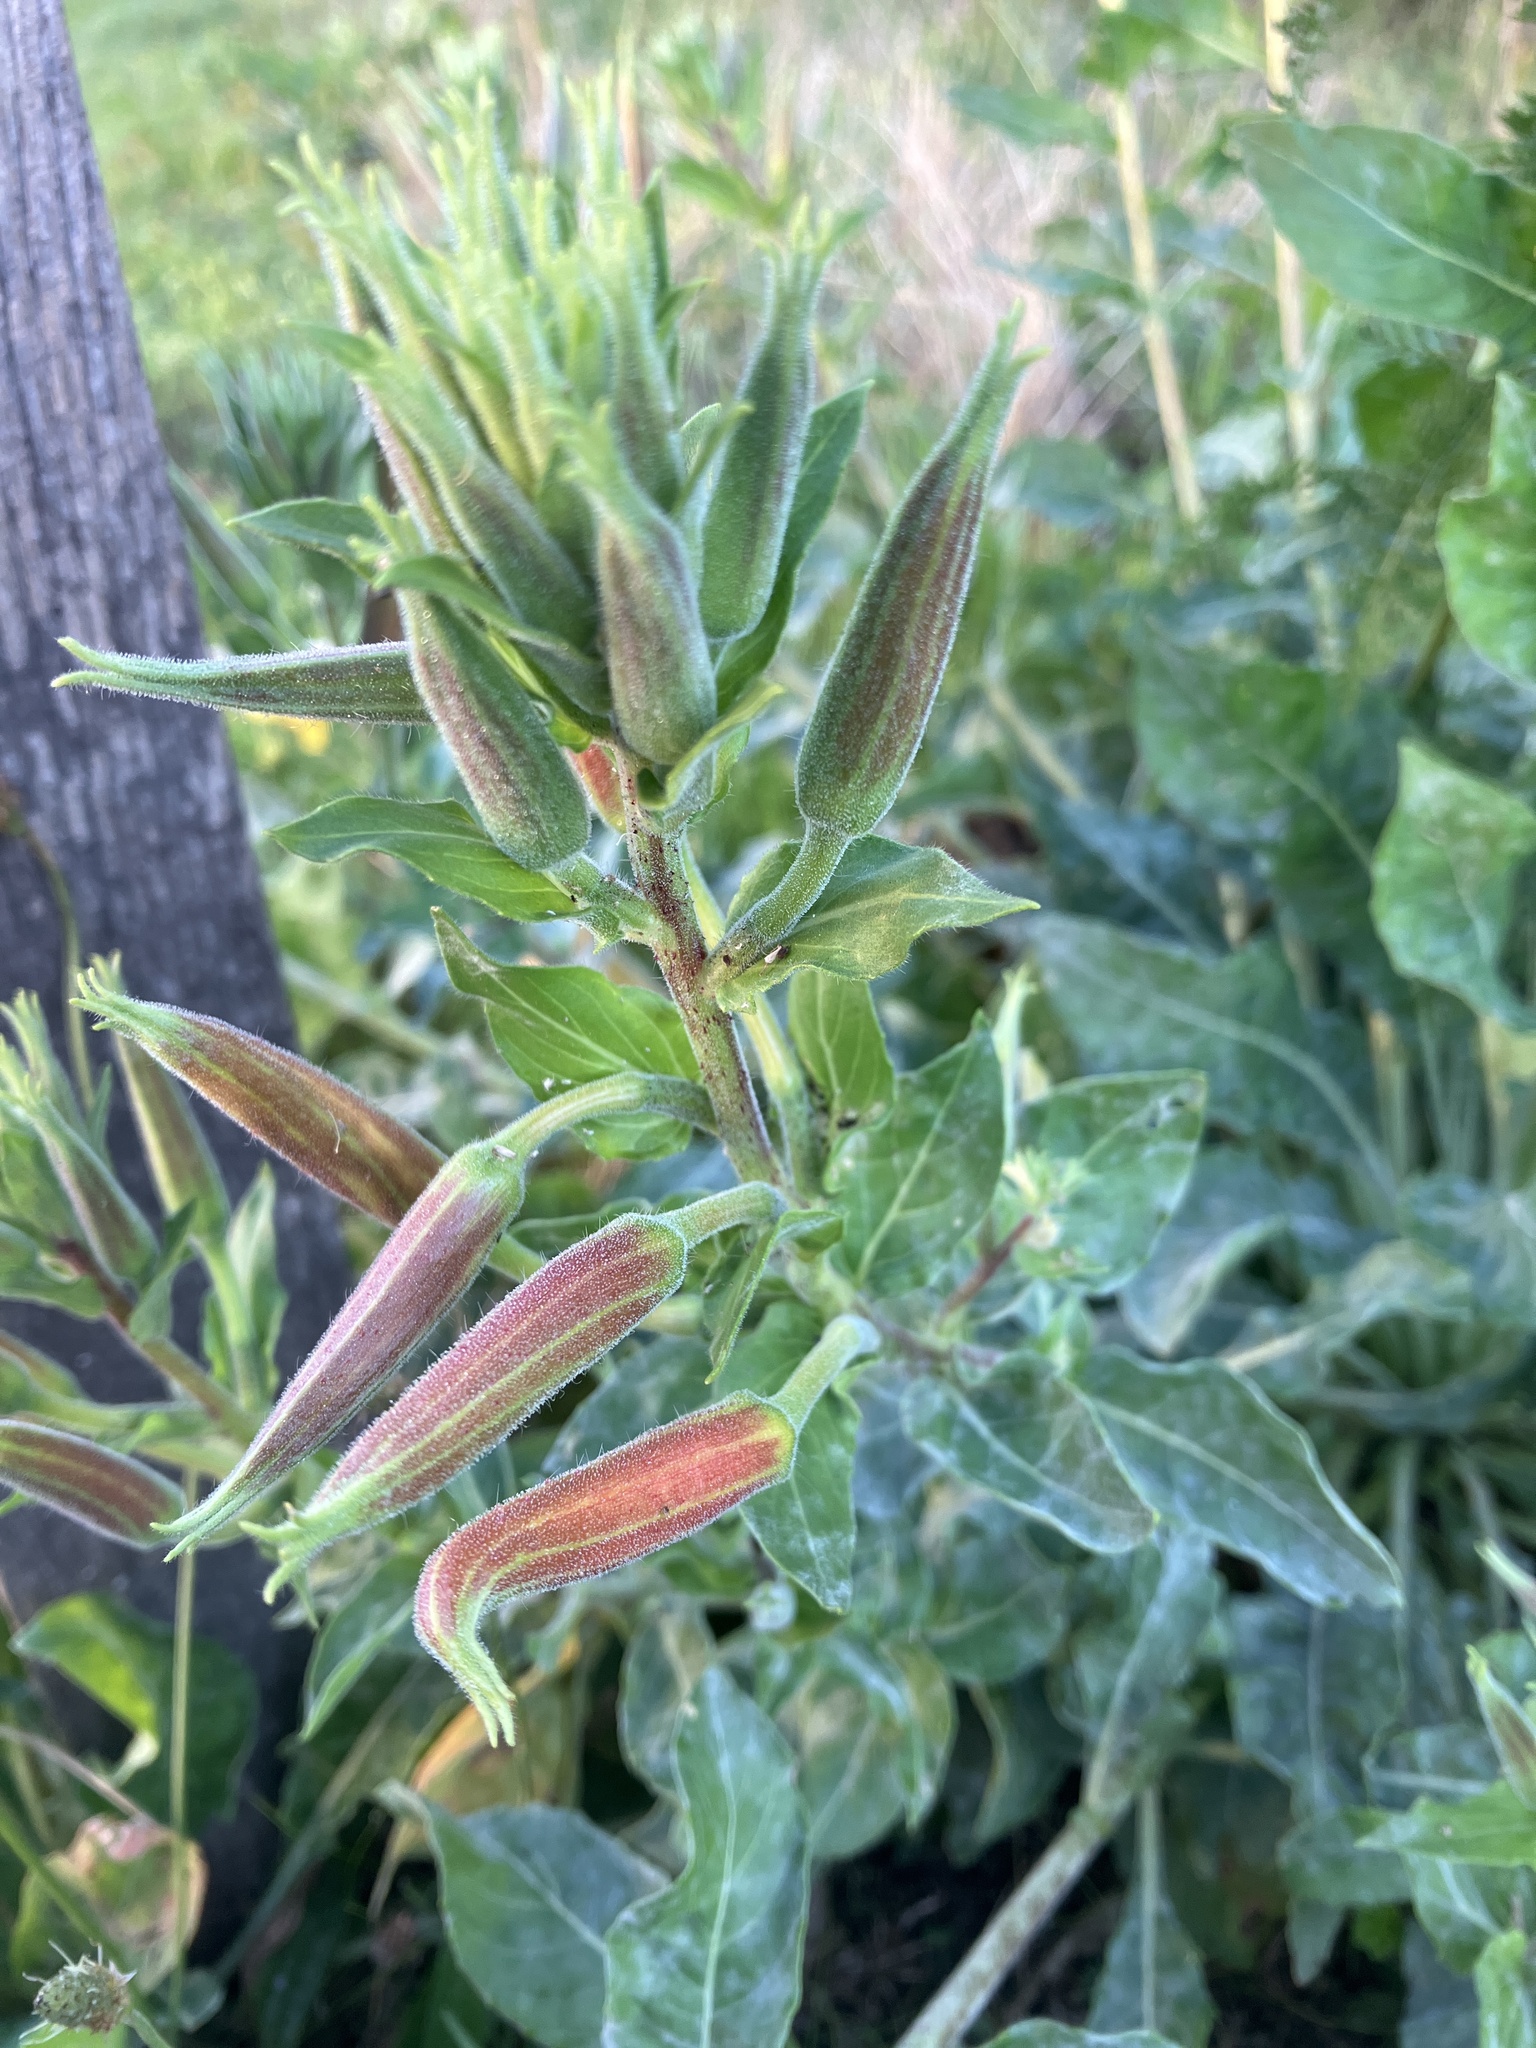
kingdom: Plantae
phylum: Tracheophyta
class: Magnoliopsida
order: Myrtales
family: Onagraceae
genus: Oenothera
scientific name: Oenothera glazioviana
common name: Large-flowered evening-primrose
